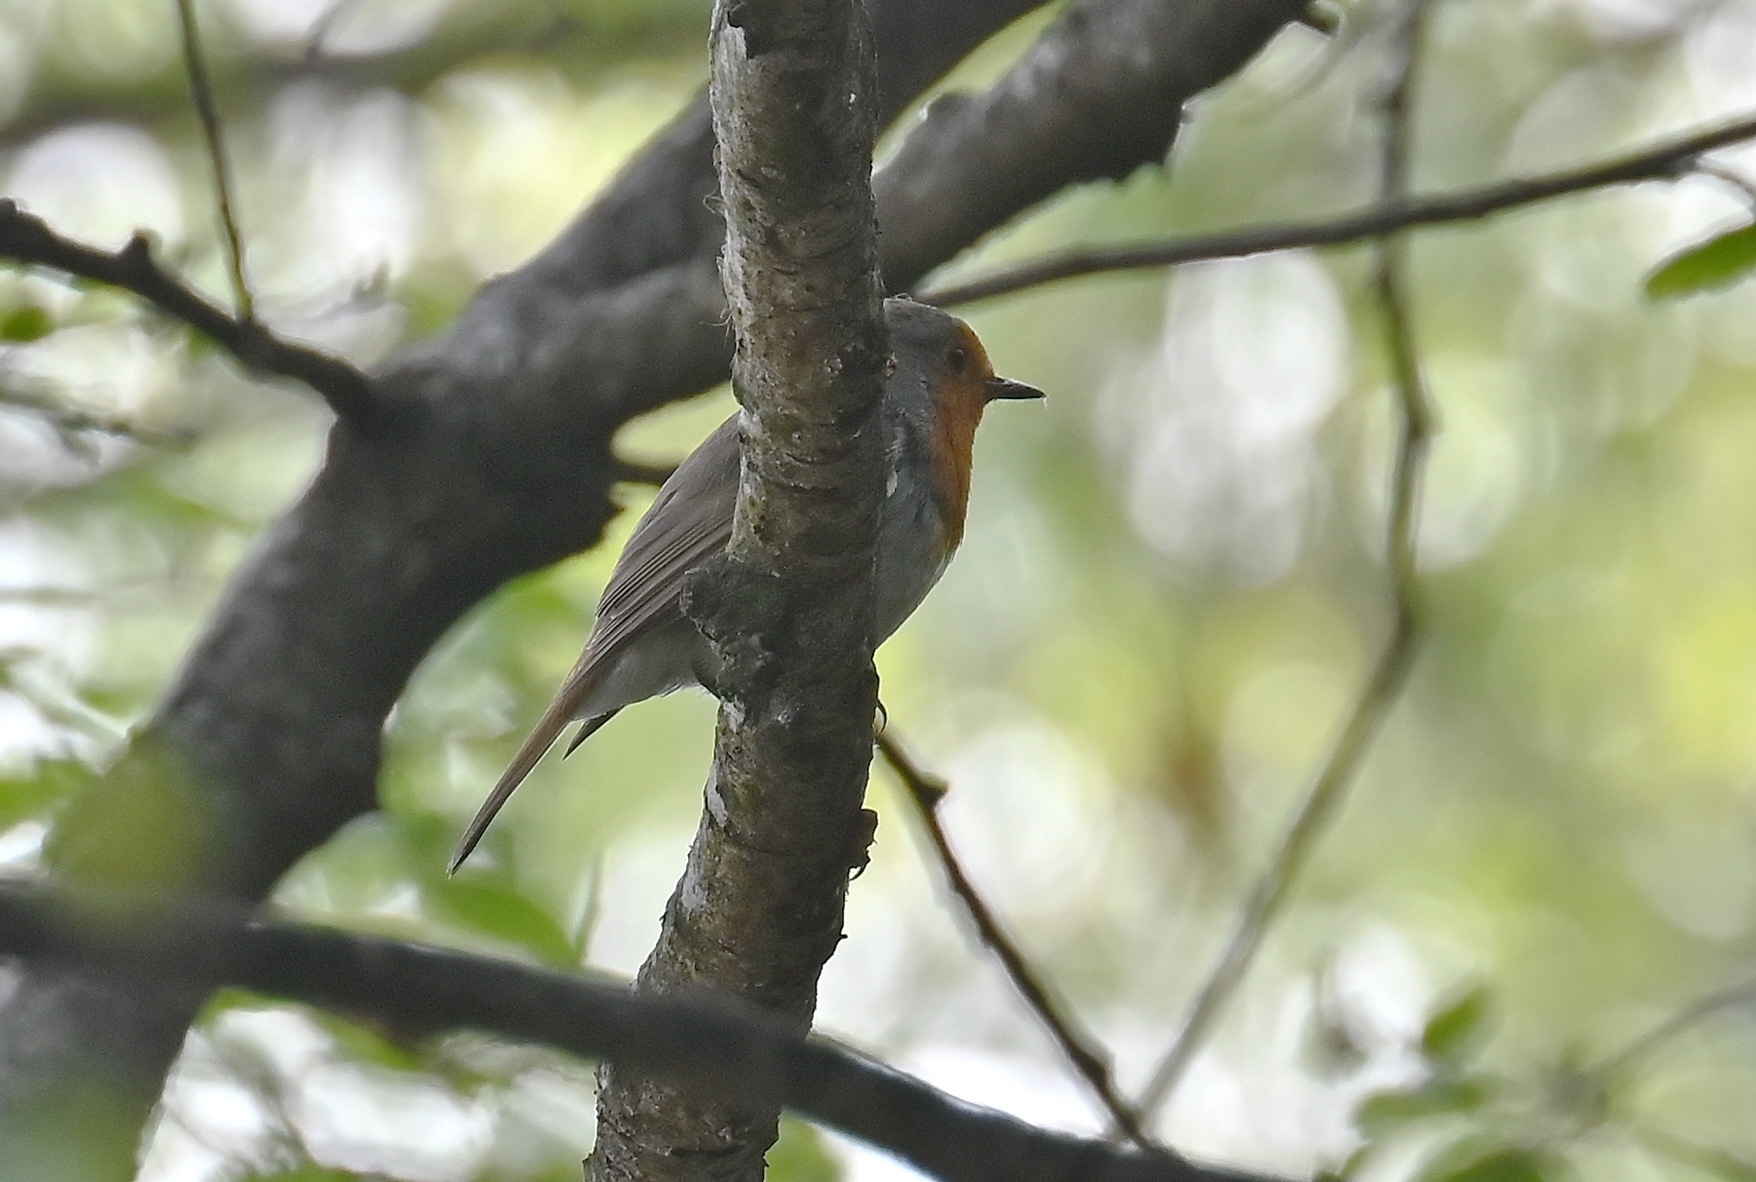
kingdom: Animalia
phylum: Chordata
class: Aves
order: Passeriformes
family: Muscicapidae
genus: Erithacus
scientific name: Erithacus rubecula
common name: European robin
